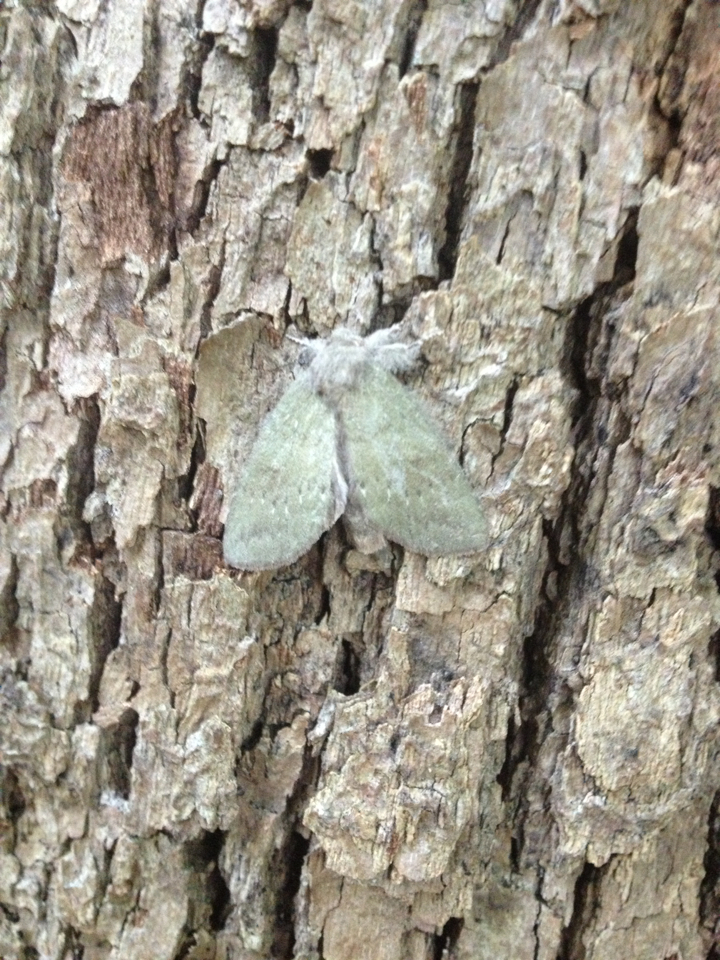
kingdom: Animalia
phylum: Arthropoda
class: Insecta
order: Lepidoptera
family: Notodontidae
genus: Misogada
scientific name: Misogada unicolor
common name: Drab prominent
